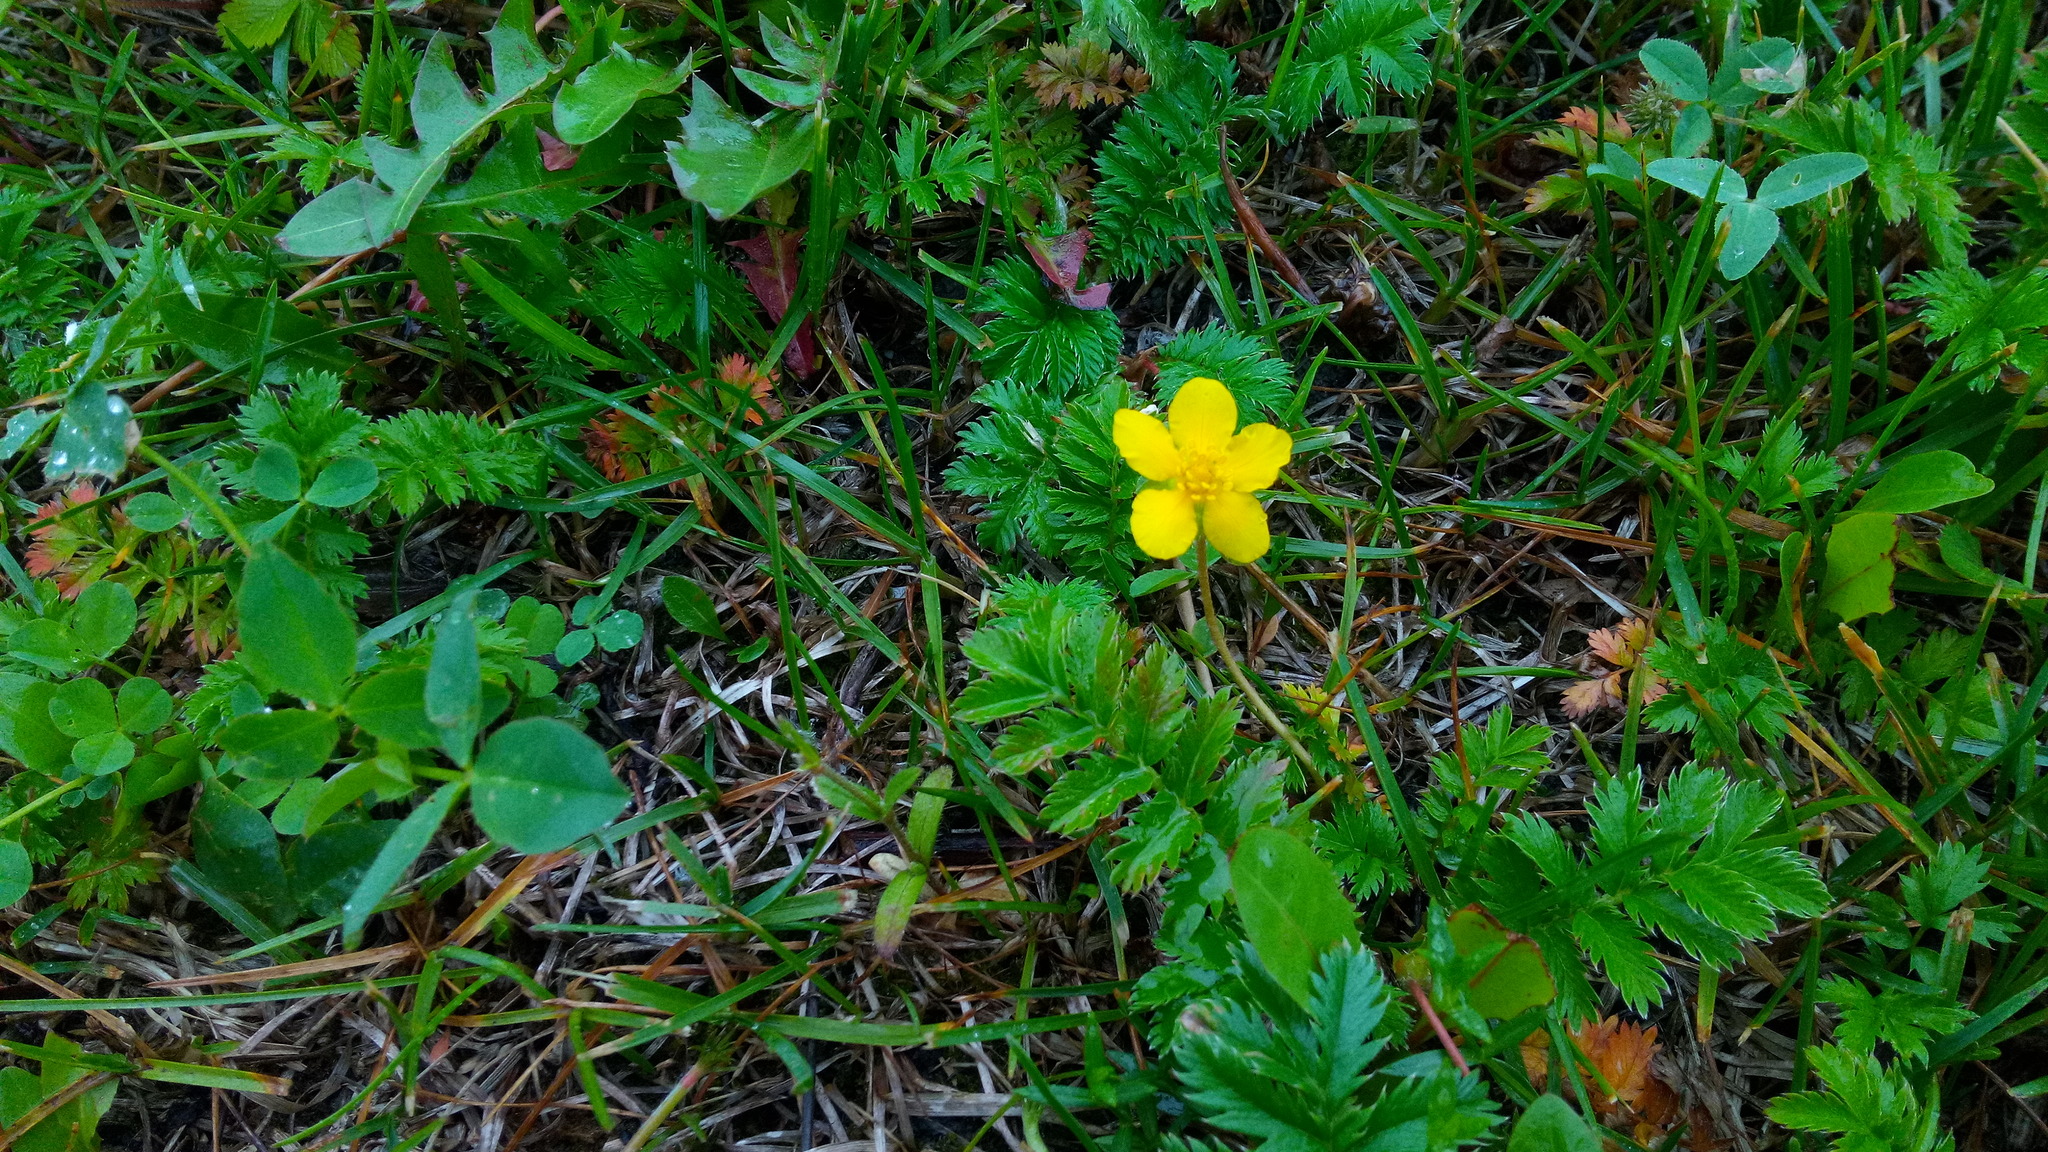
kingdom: Plantae
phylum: Tracheophyta
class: Magnoliopsida
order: Rosales
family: Rosaceae
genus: Argentina
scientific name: Argentina anserina
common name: Common silverweed
